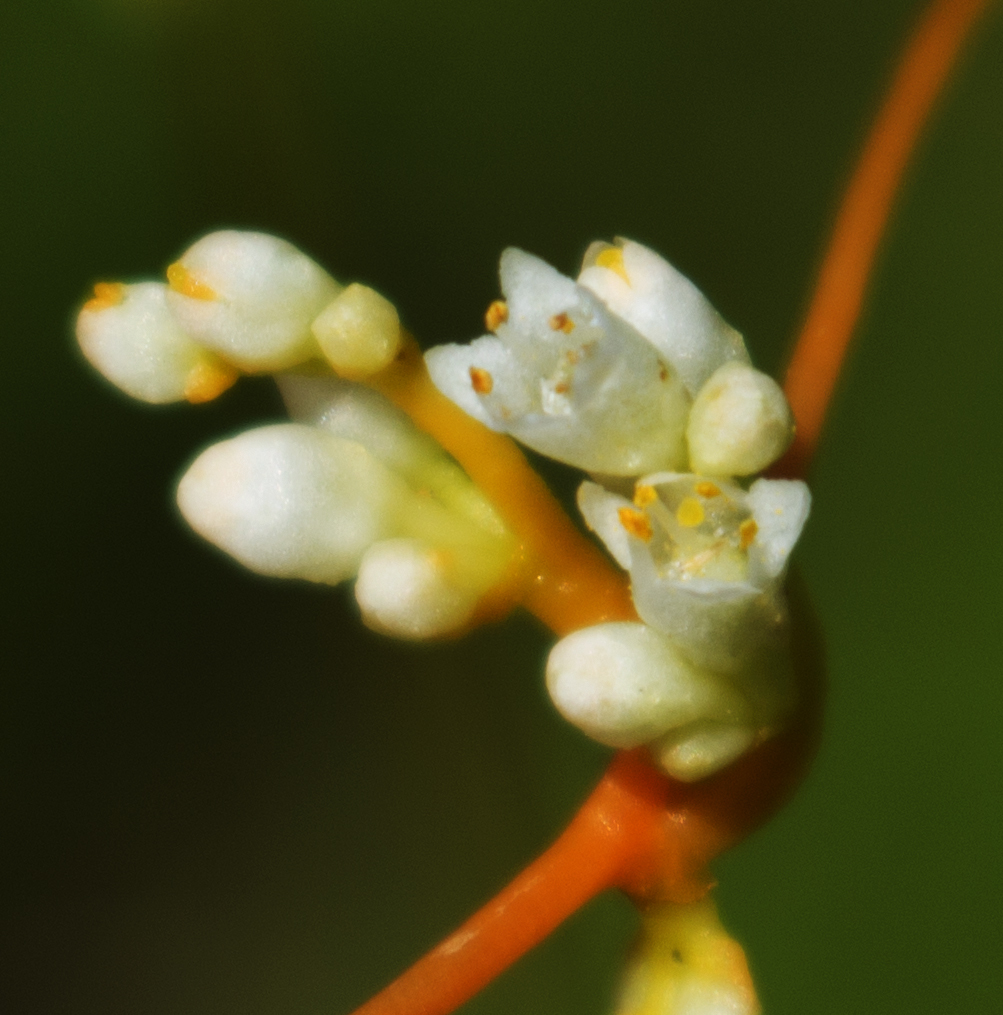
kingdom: Plantae
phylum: Tracheophyta
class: Magnoliopsida
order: Solanales
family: Convolvulaceae
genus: Cuscuta
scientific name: Cuscuta gronovii
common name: Common dodder
